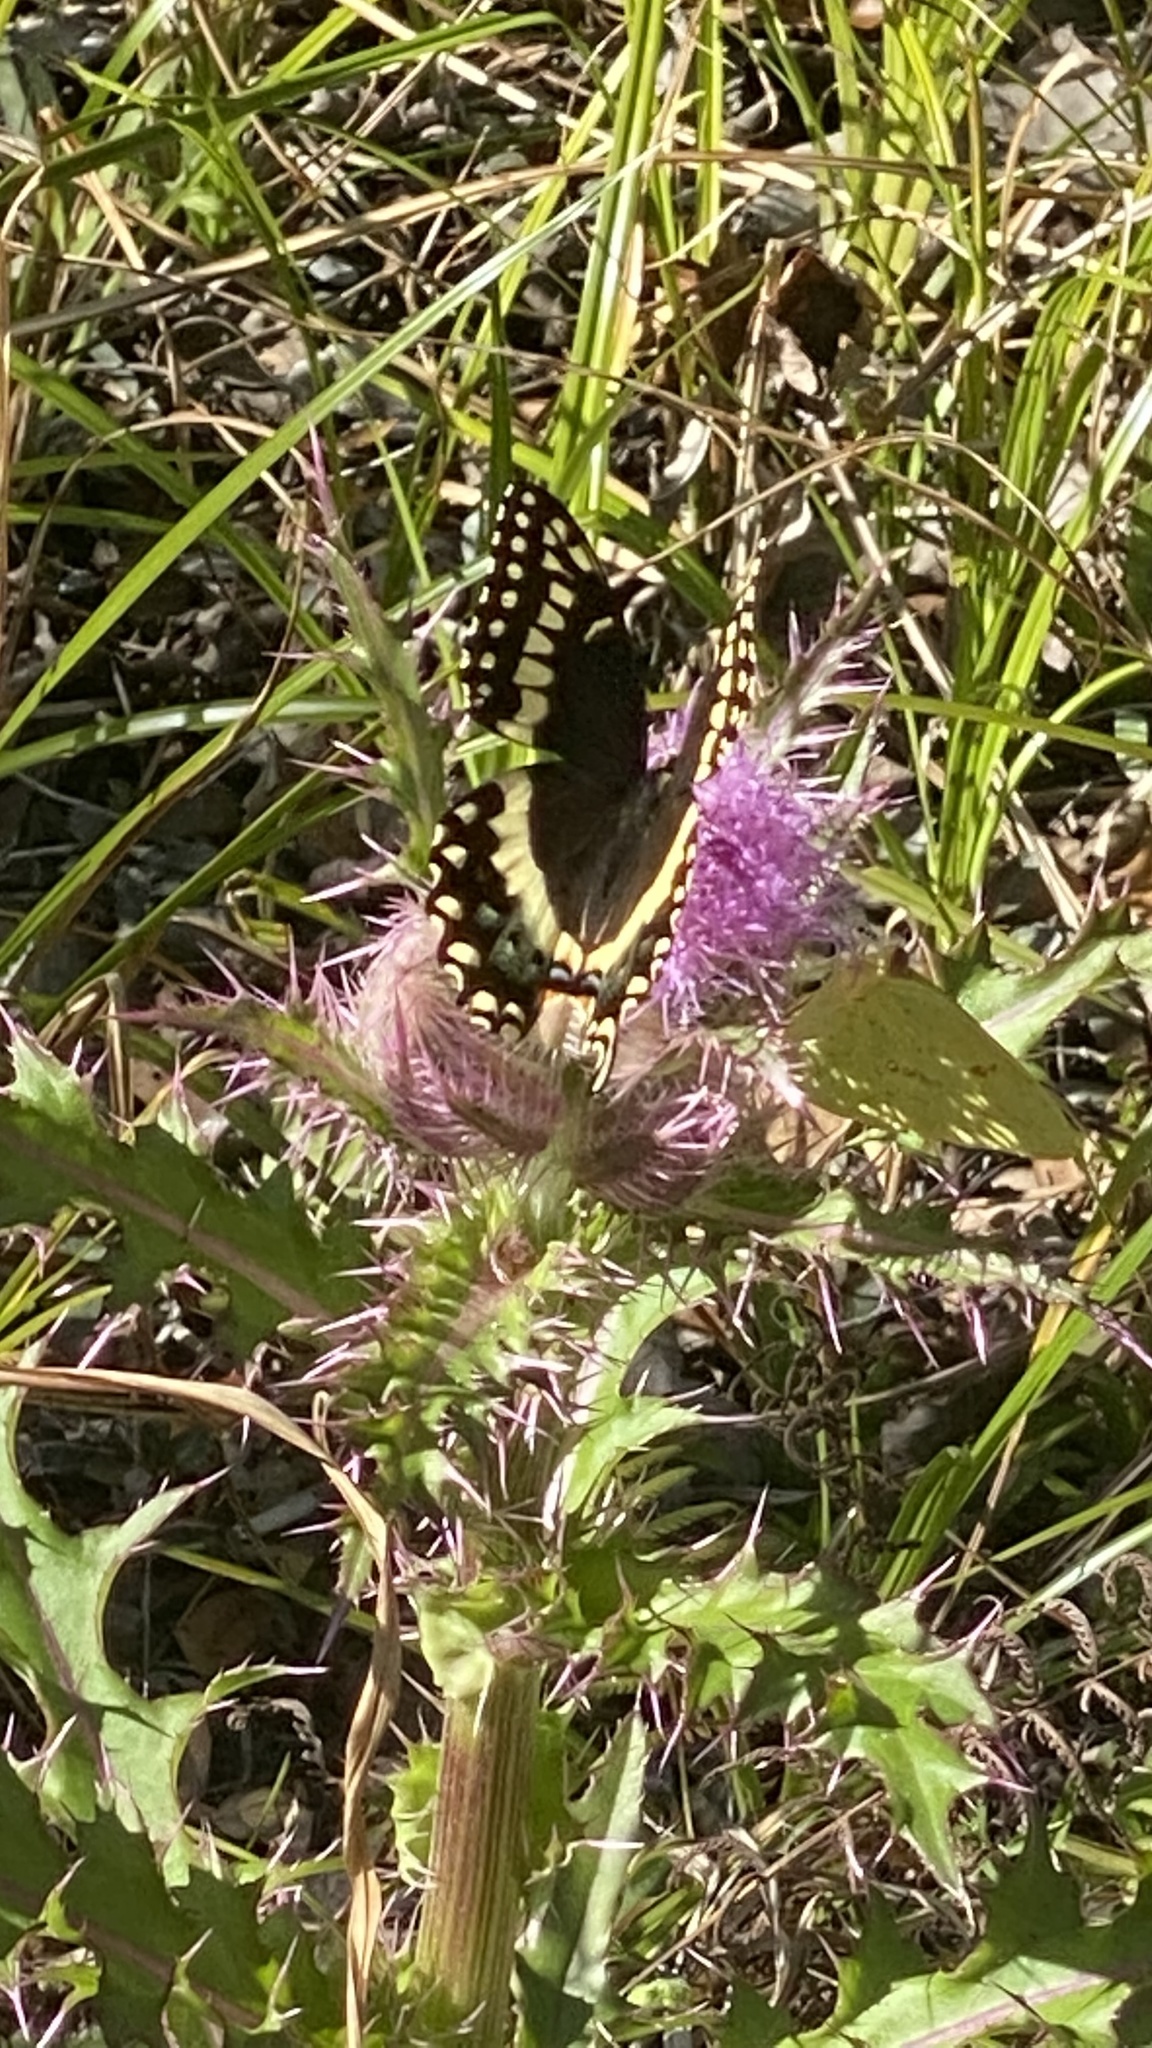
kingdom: Animalia
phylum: Arthropoda
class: Insecta
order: Lepidoptera
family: Papilionidae
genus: Papilio
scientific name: Papilio polyxenes
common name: Black swallowtail
